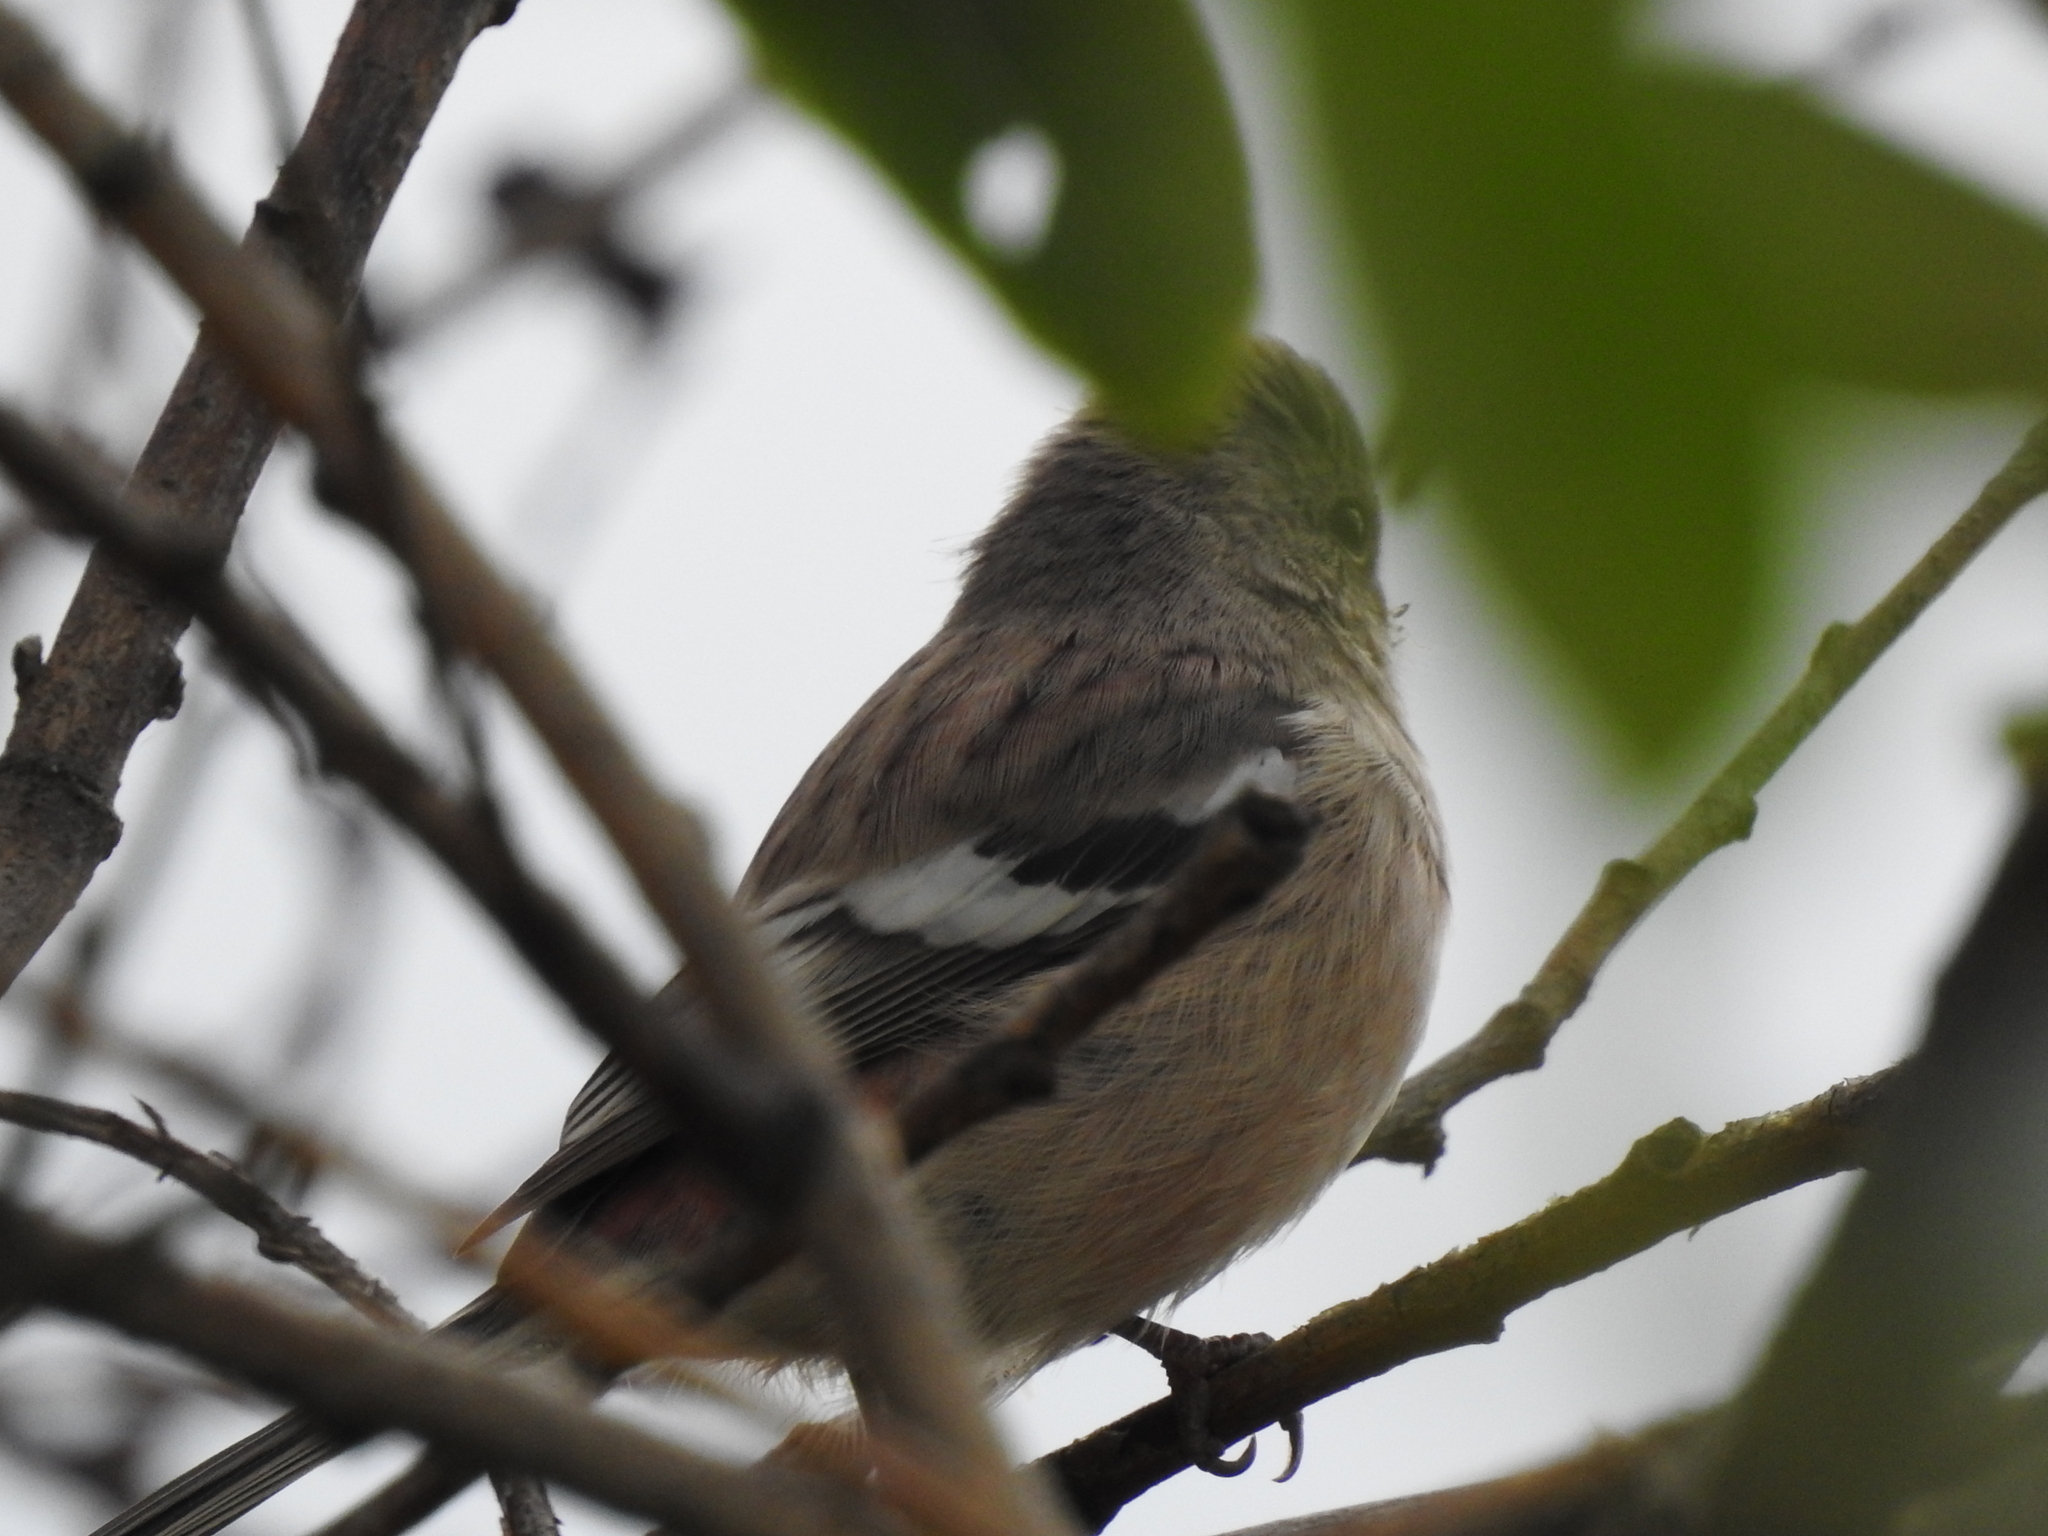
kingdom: Animalia
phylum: Chordata
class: Aves
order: Passeriformes
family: Fringillidae
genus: Carpodacus
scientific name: Carpodacus sibiricus
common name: Long-tailed rosefinch
